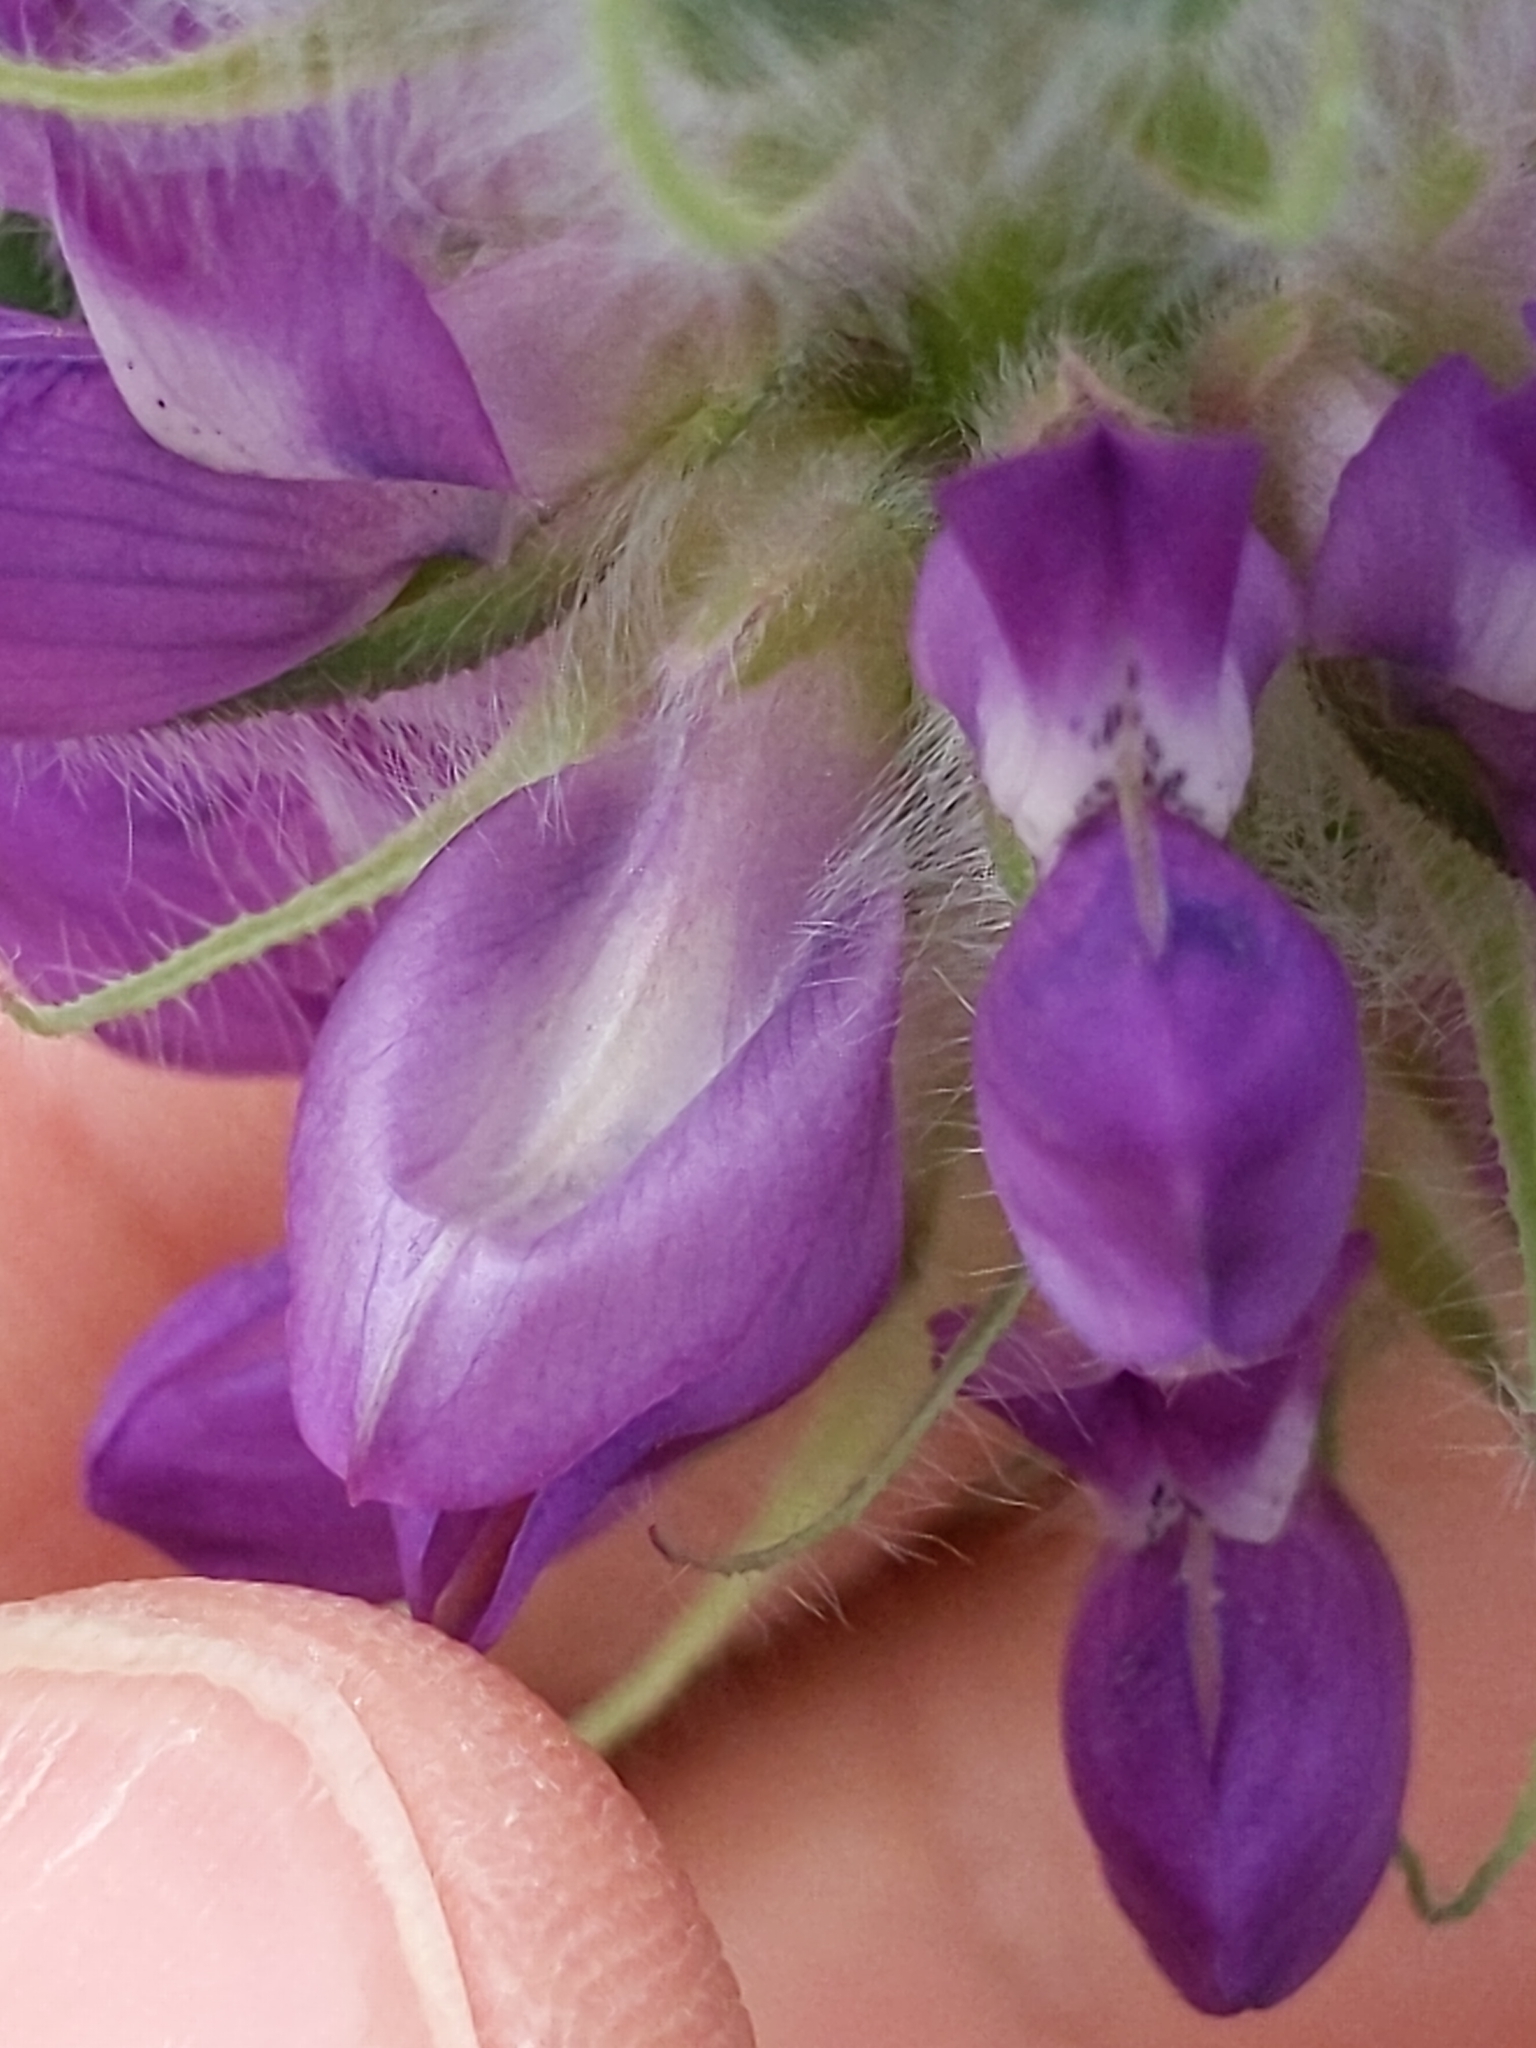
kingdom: Plantae
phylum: Tracheophyta
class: Magnoliopsida
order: Fabales
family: Fabaceae
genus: Lupinus
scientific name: Lupinus microcarpus
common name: Chick lupine
